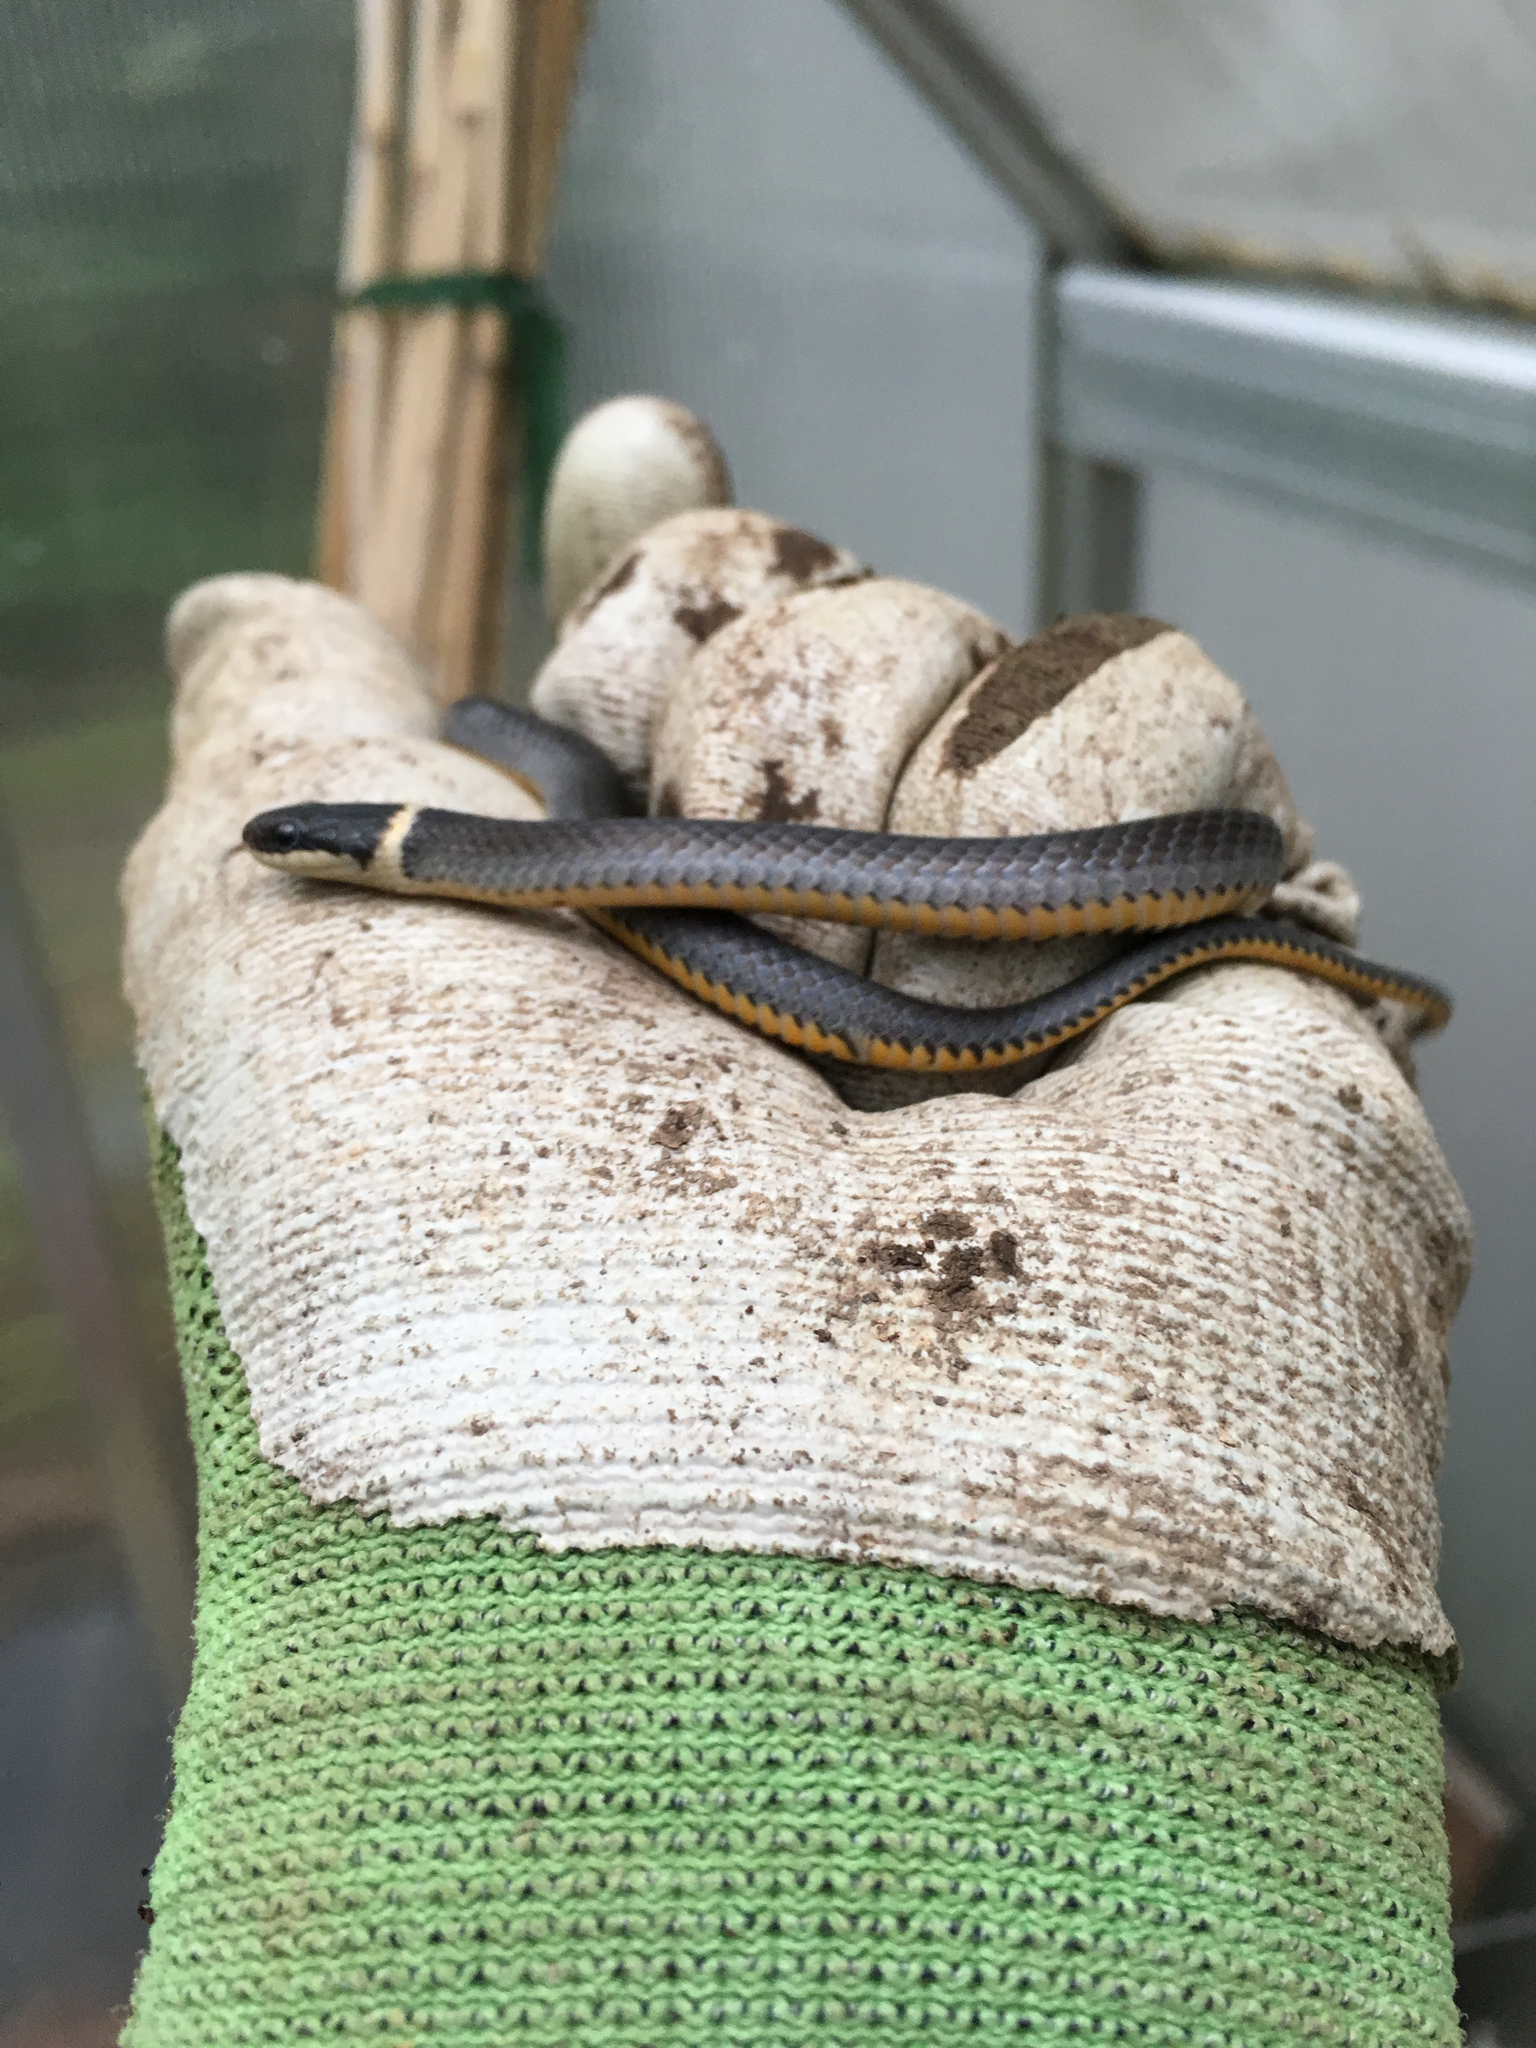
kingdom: Animalia
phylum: Chordata
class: Squamata
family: Colubridae
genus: Diadophis
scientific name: Diadophis punctatus
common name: Ringneck snake
